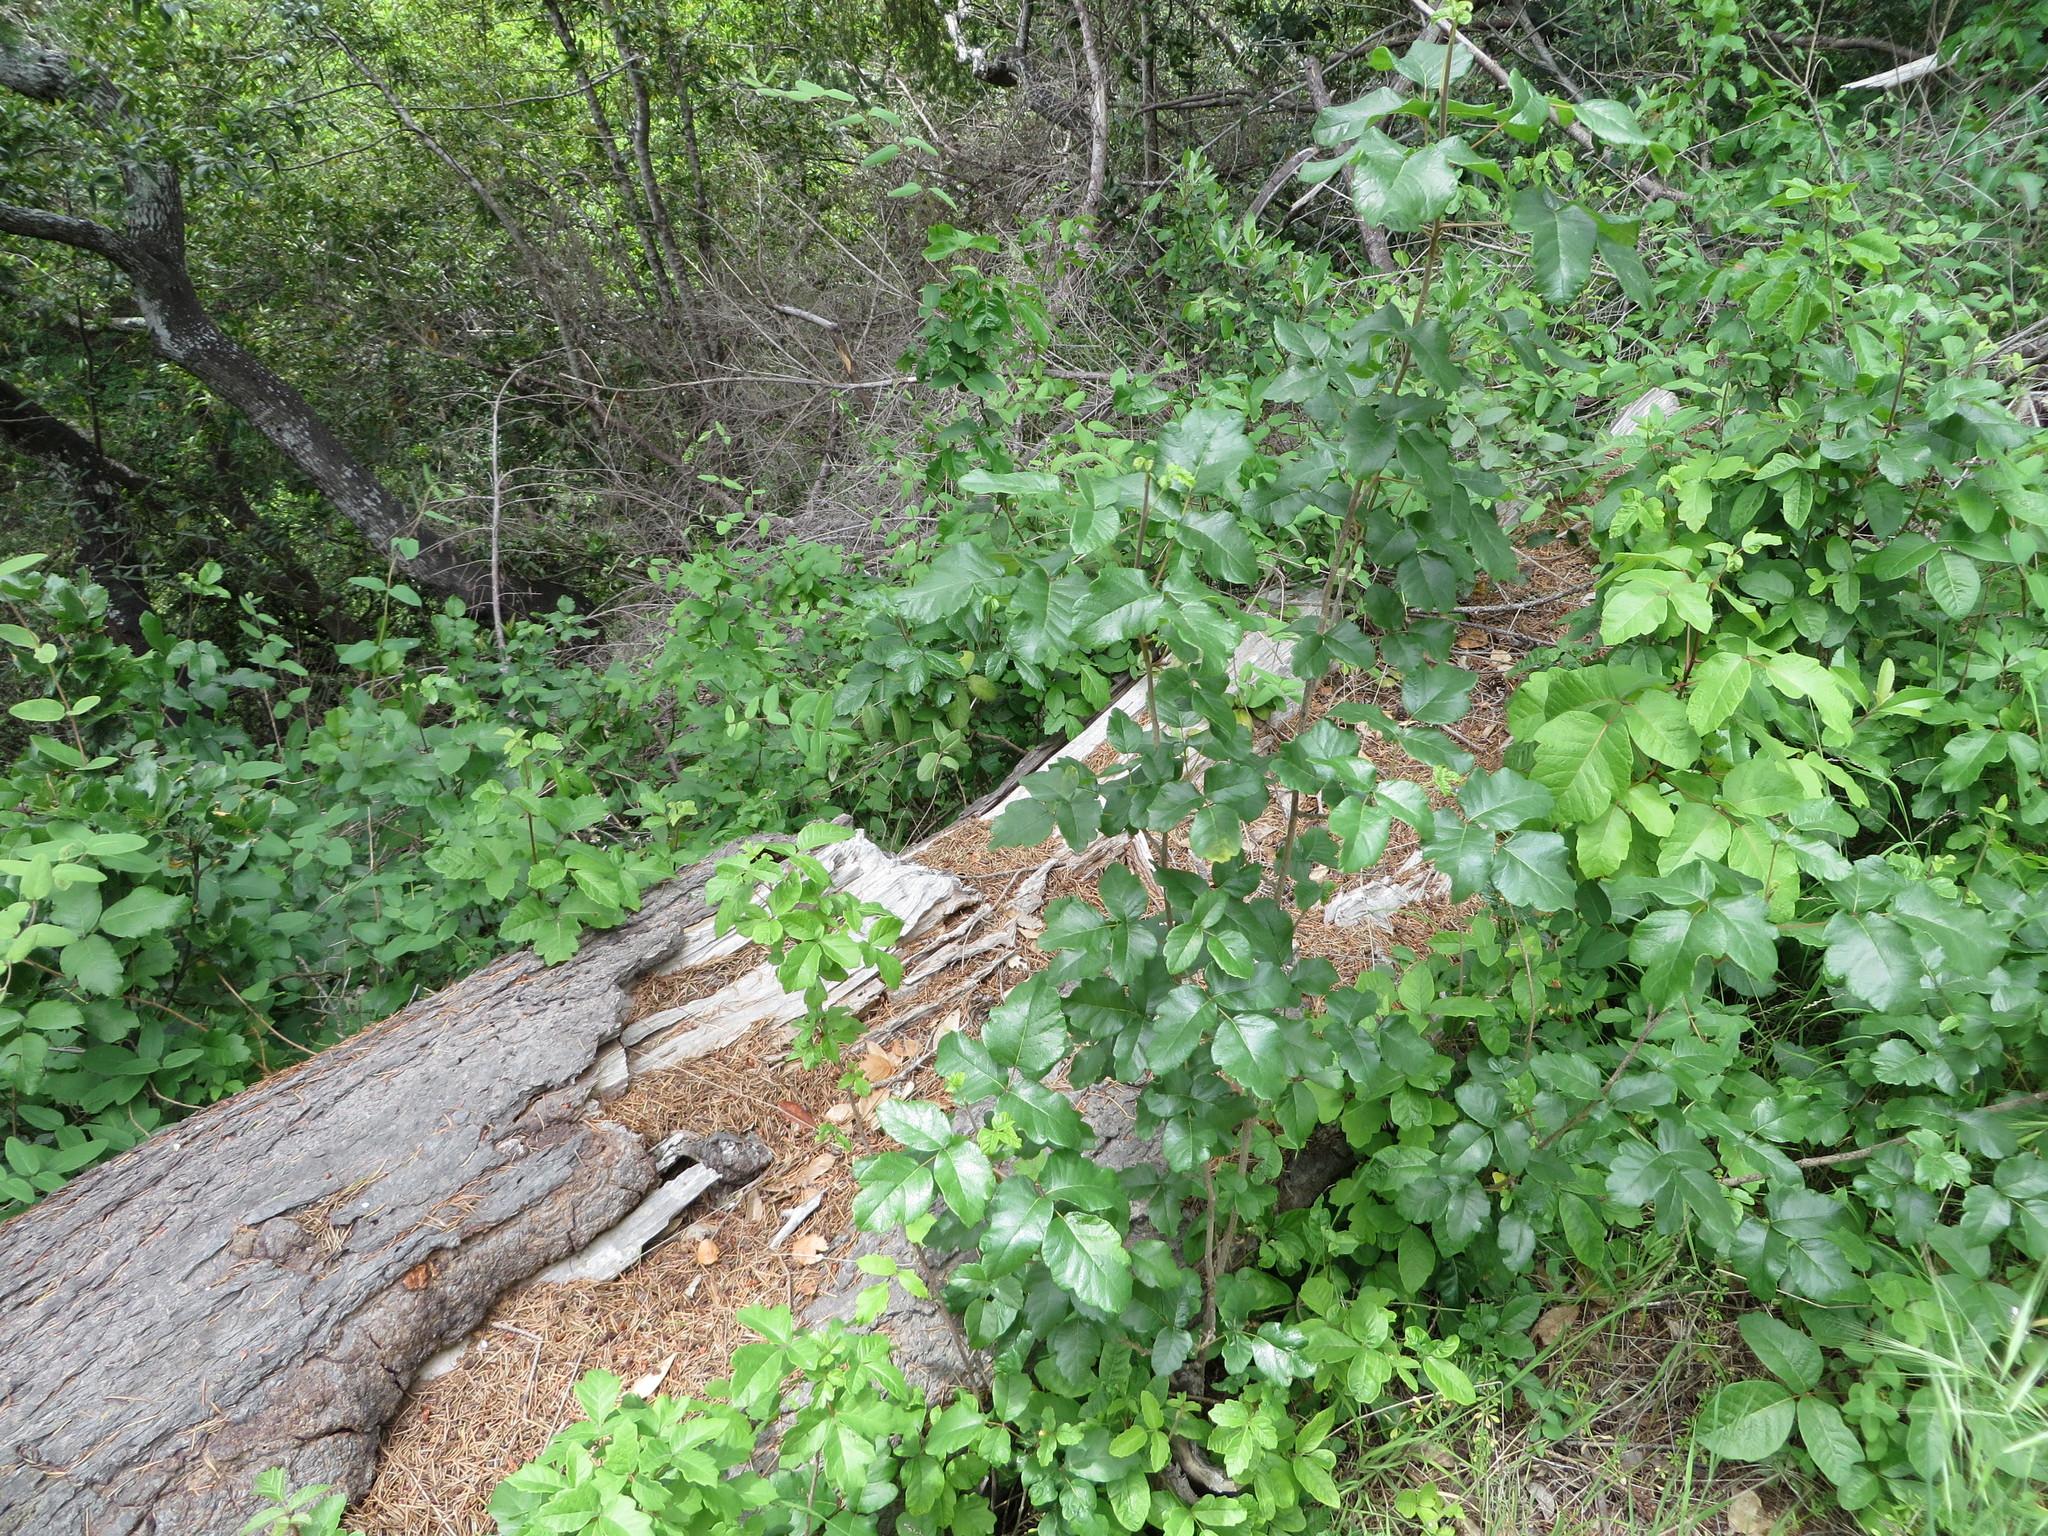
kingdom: Plantae
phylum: Tracheophyta
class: Magnoliopsida
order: Sapindales
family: Anacardiaceae
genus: Toxicodendron
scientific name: Toxicodendron diversilobum
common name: Pacific poison-oak
